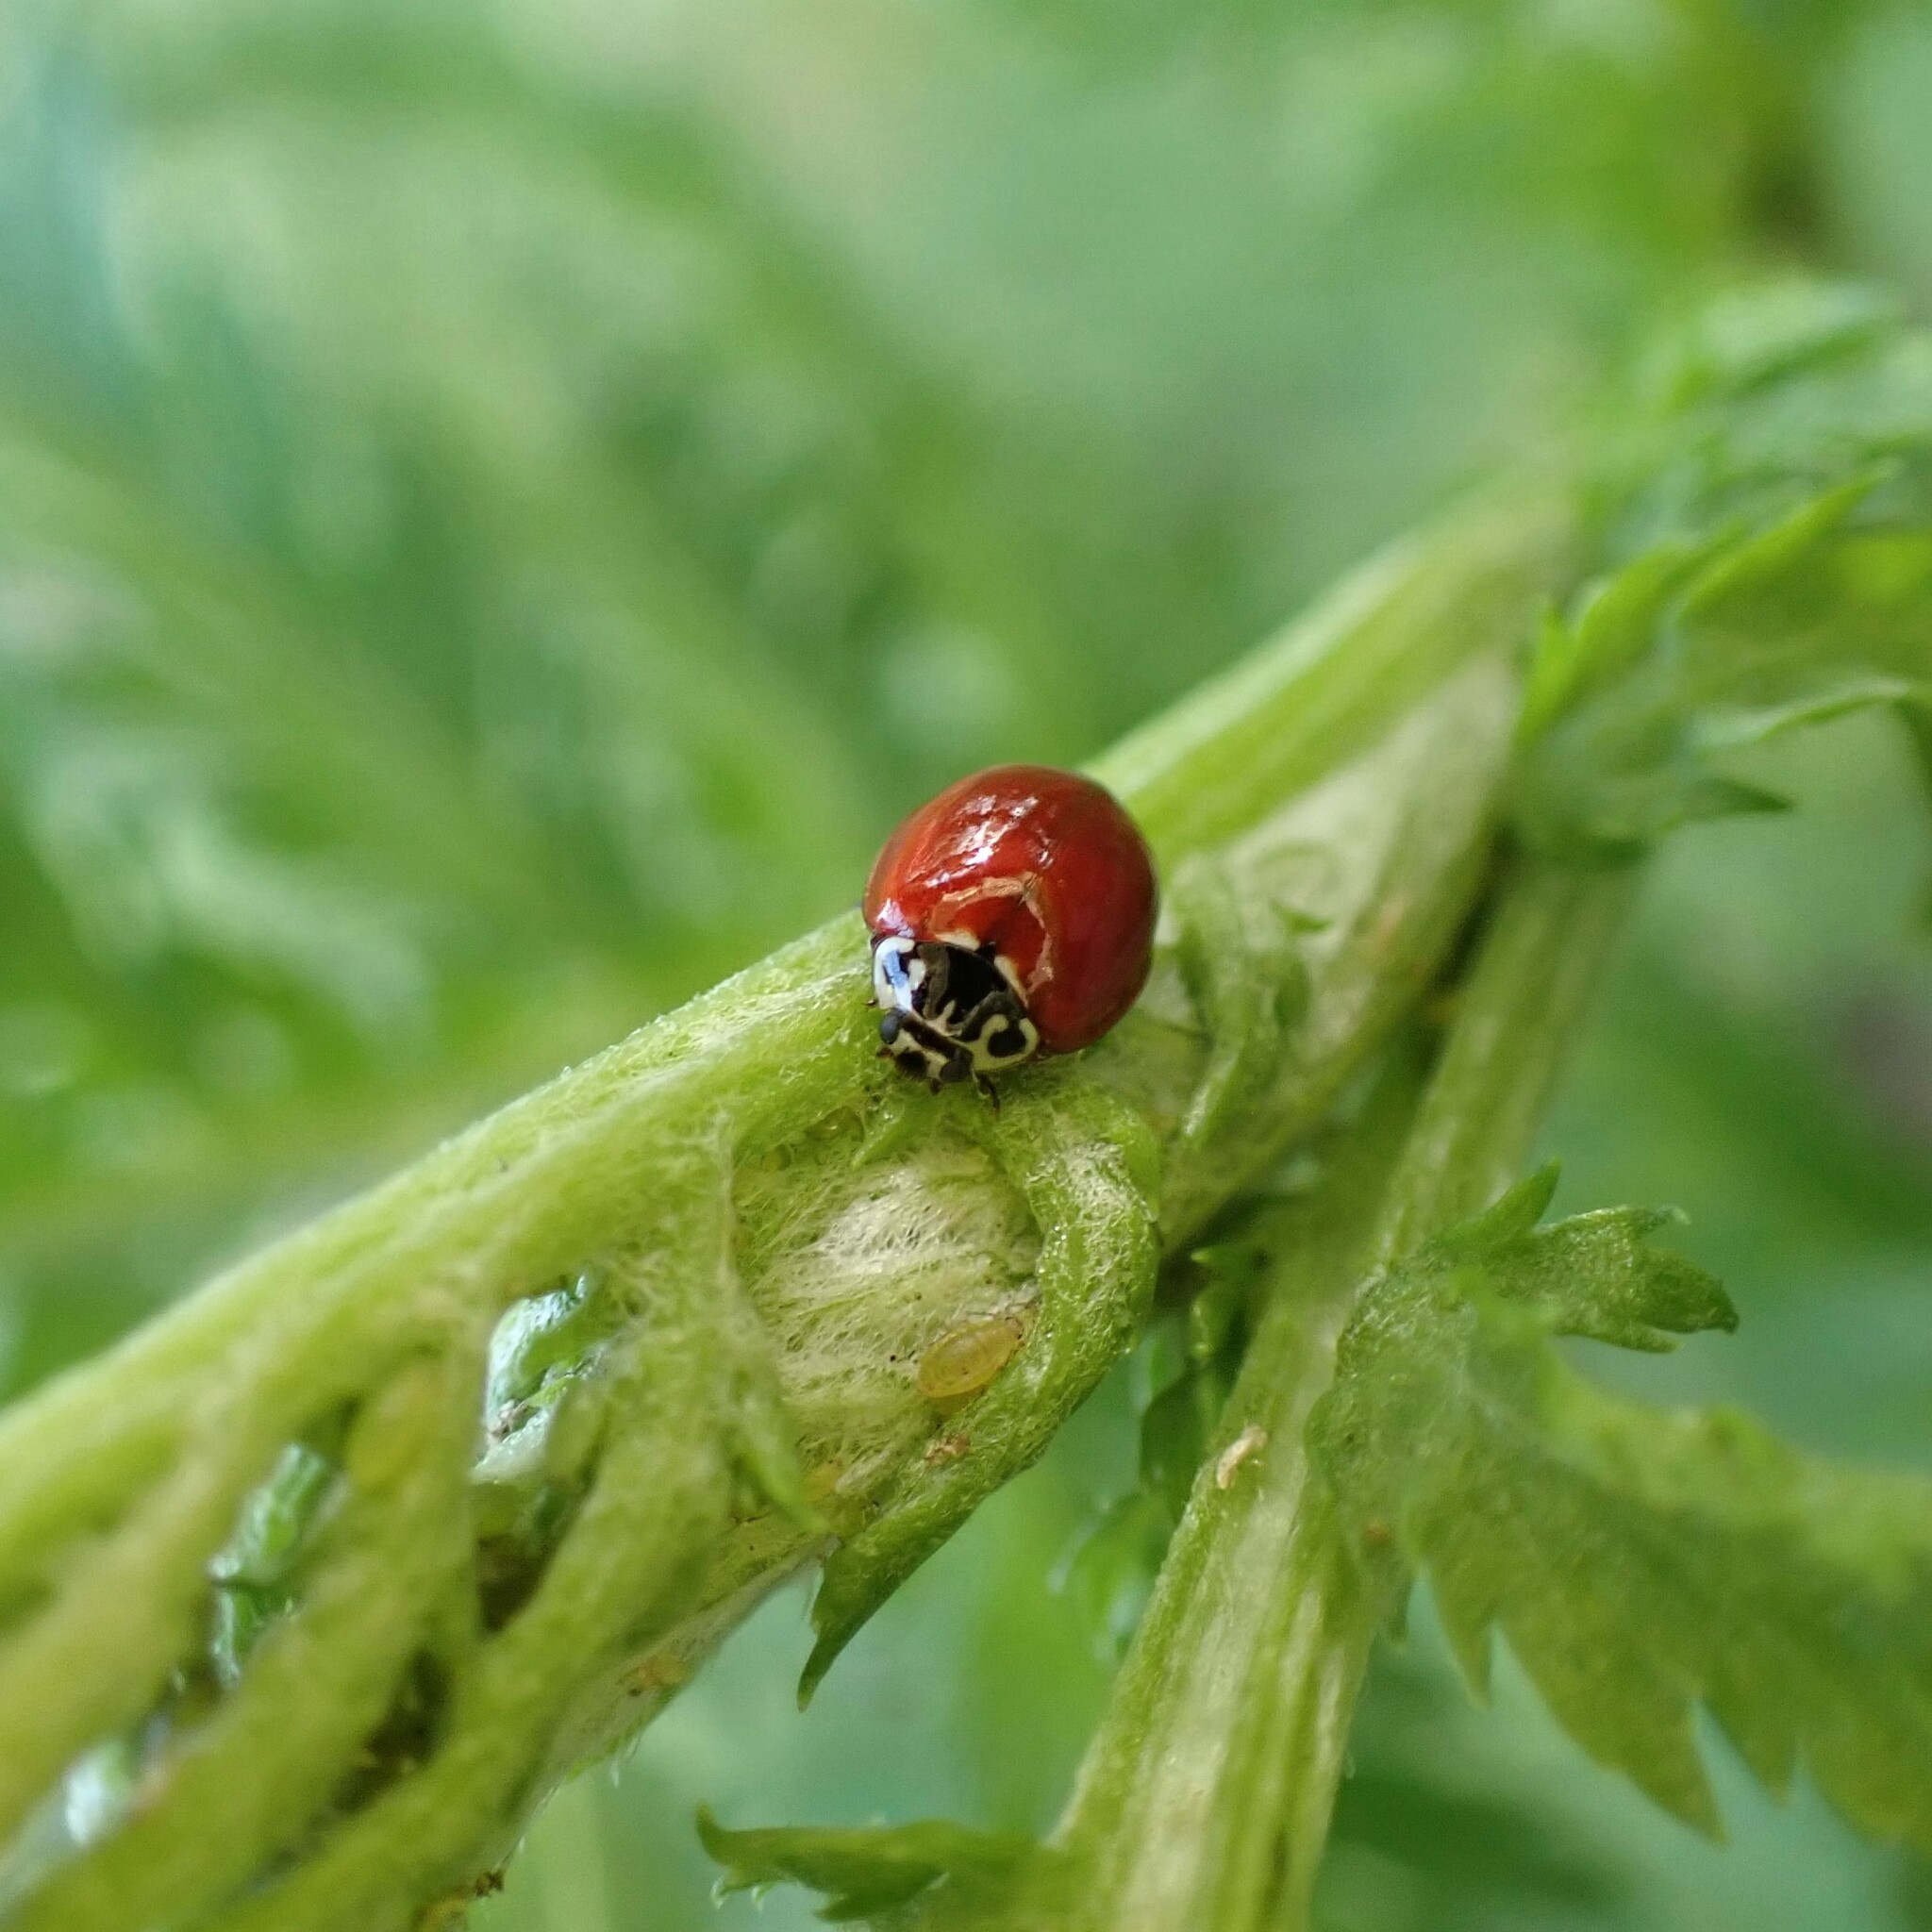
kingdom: Animalia
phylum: Arthropoda
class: Insecta
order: Coleoptera
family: Coccinellidae
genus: Cycloneda
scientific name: Cycloneda polita
